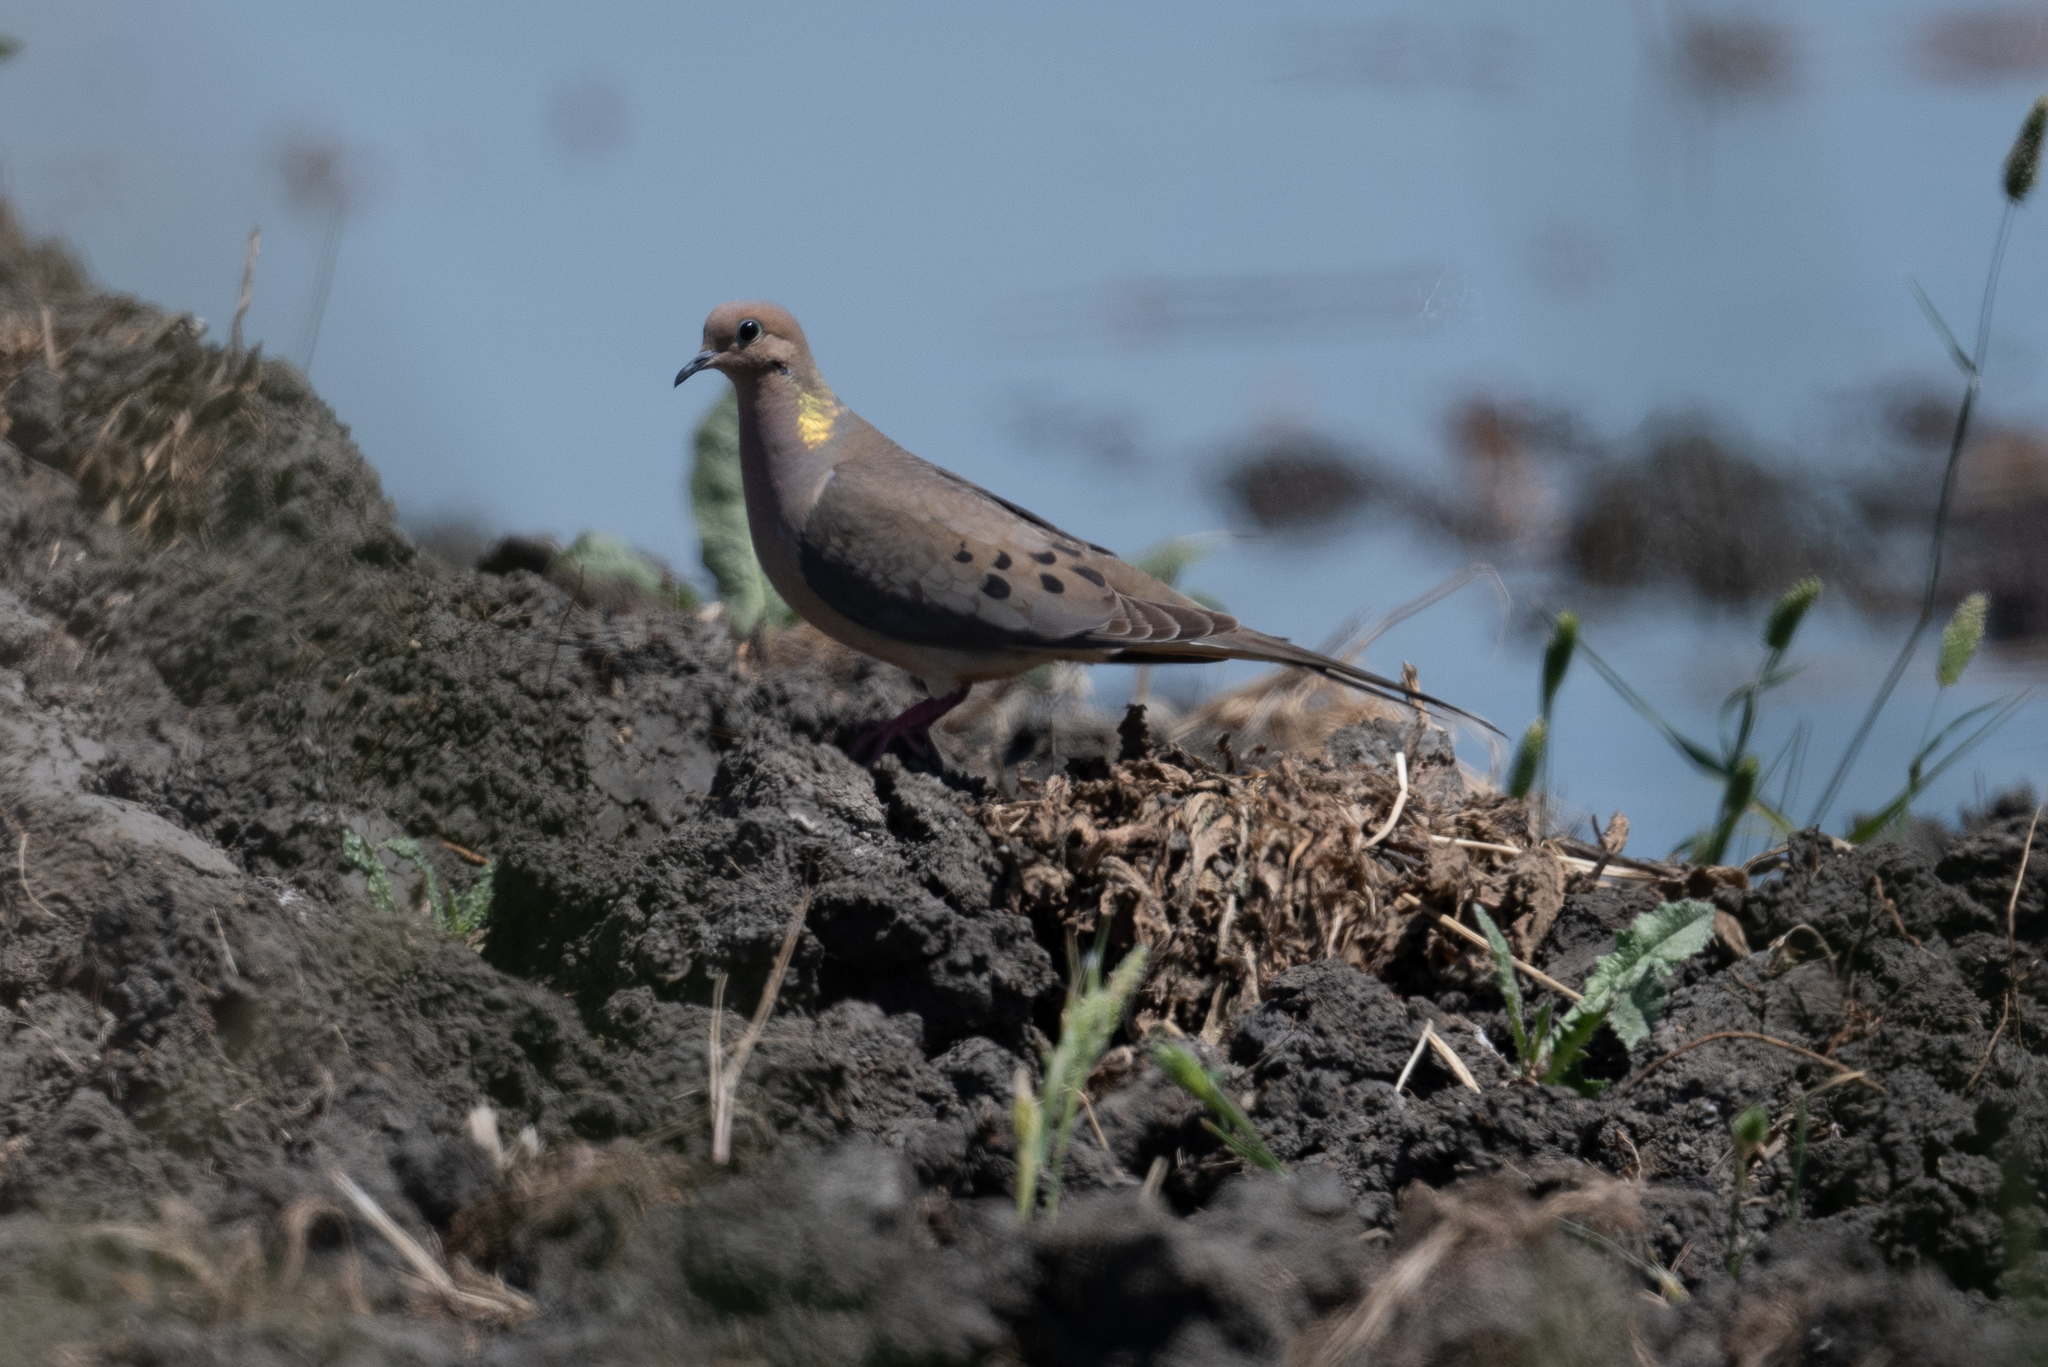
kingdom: Animalia
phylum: Chordata
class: Aves
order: Columbiformes
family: Columbidae
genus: Zenaida
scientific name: Zenaida macroura
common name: Mourning dove
